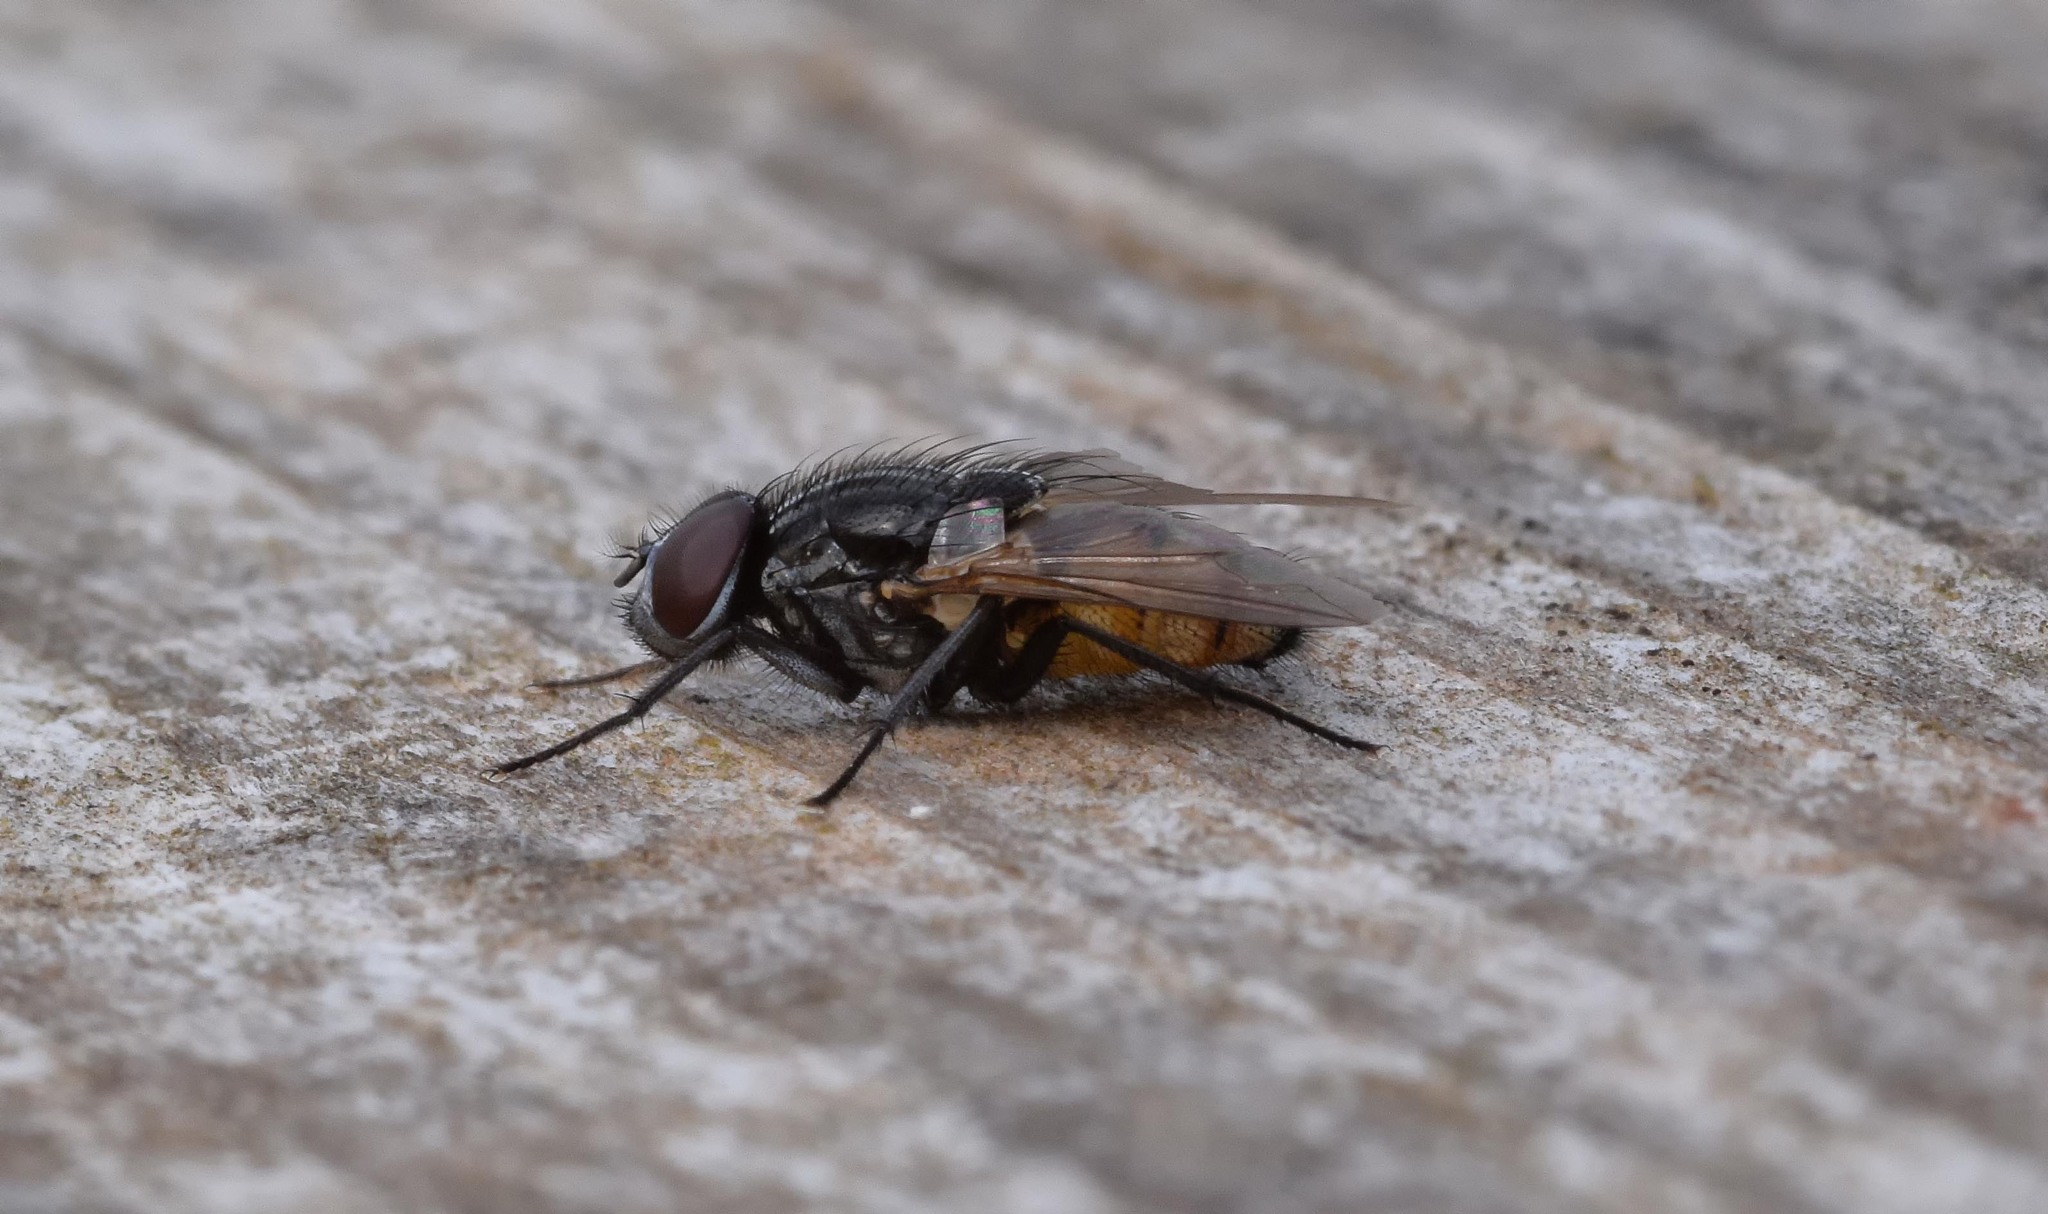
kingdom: Animalia
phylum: Arthropoda
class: Insecta
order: Diptera
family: Muscidae
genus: Musca
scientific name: Musca autumnalis
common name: Face fly
